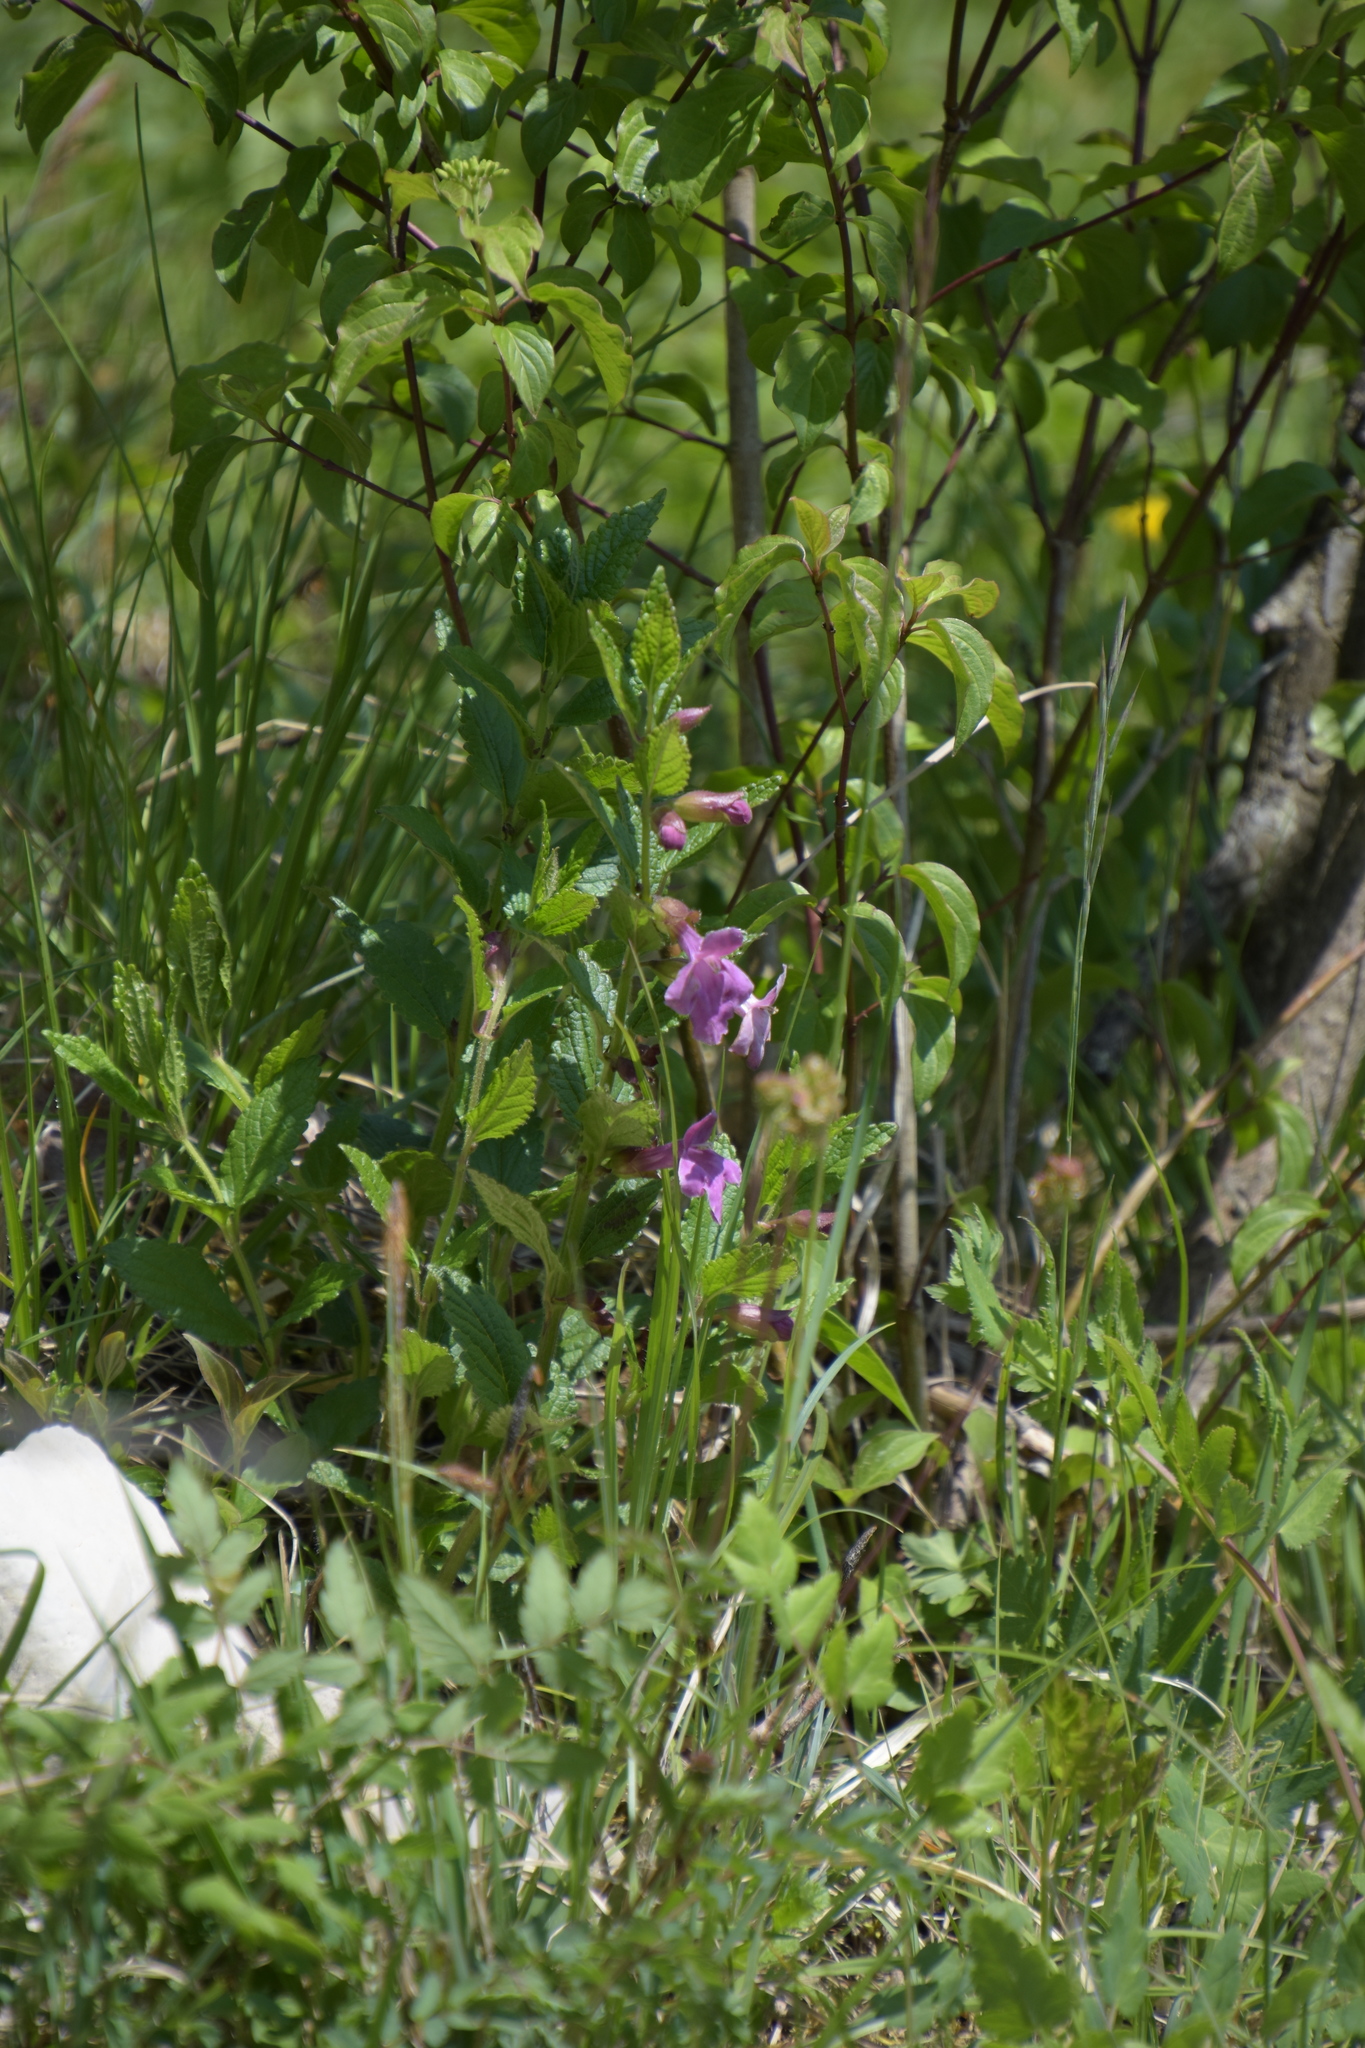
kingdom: Plantae
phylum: Tracheophyta
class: Magnoliopsida
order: Lamiales
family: Lamiaceae
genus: Melittis
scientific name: Melittis melissophyllum
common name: Bastard balm
